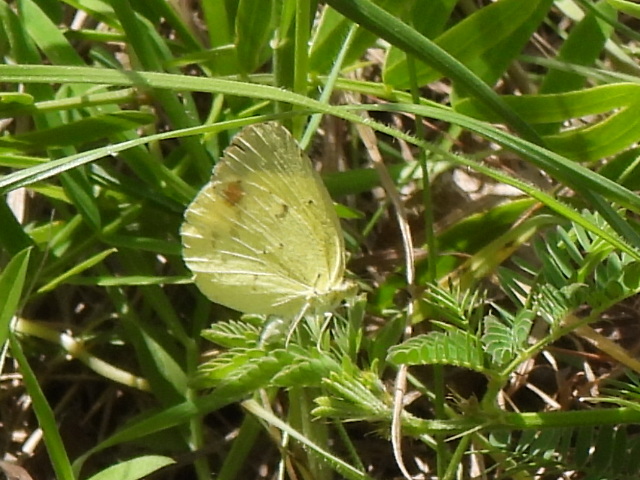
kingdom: Animalia
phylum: Arthropoda
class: Insecta
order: Lepidoptera
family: Pieridae
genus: Pyrisitia
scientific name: Pyrisitia lisa
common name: Little yellow
